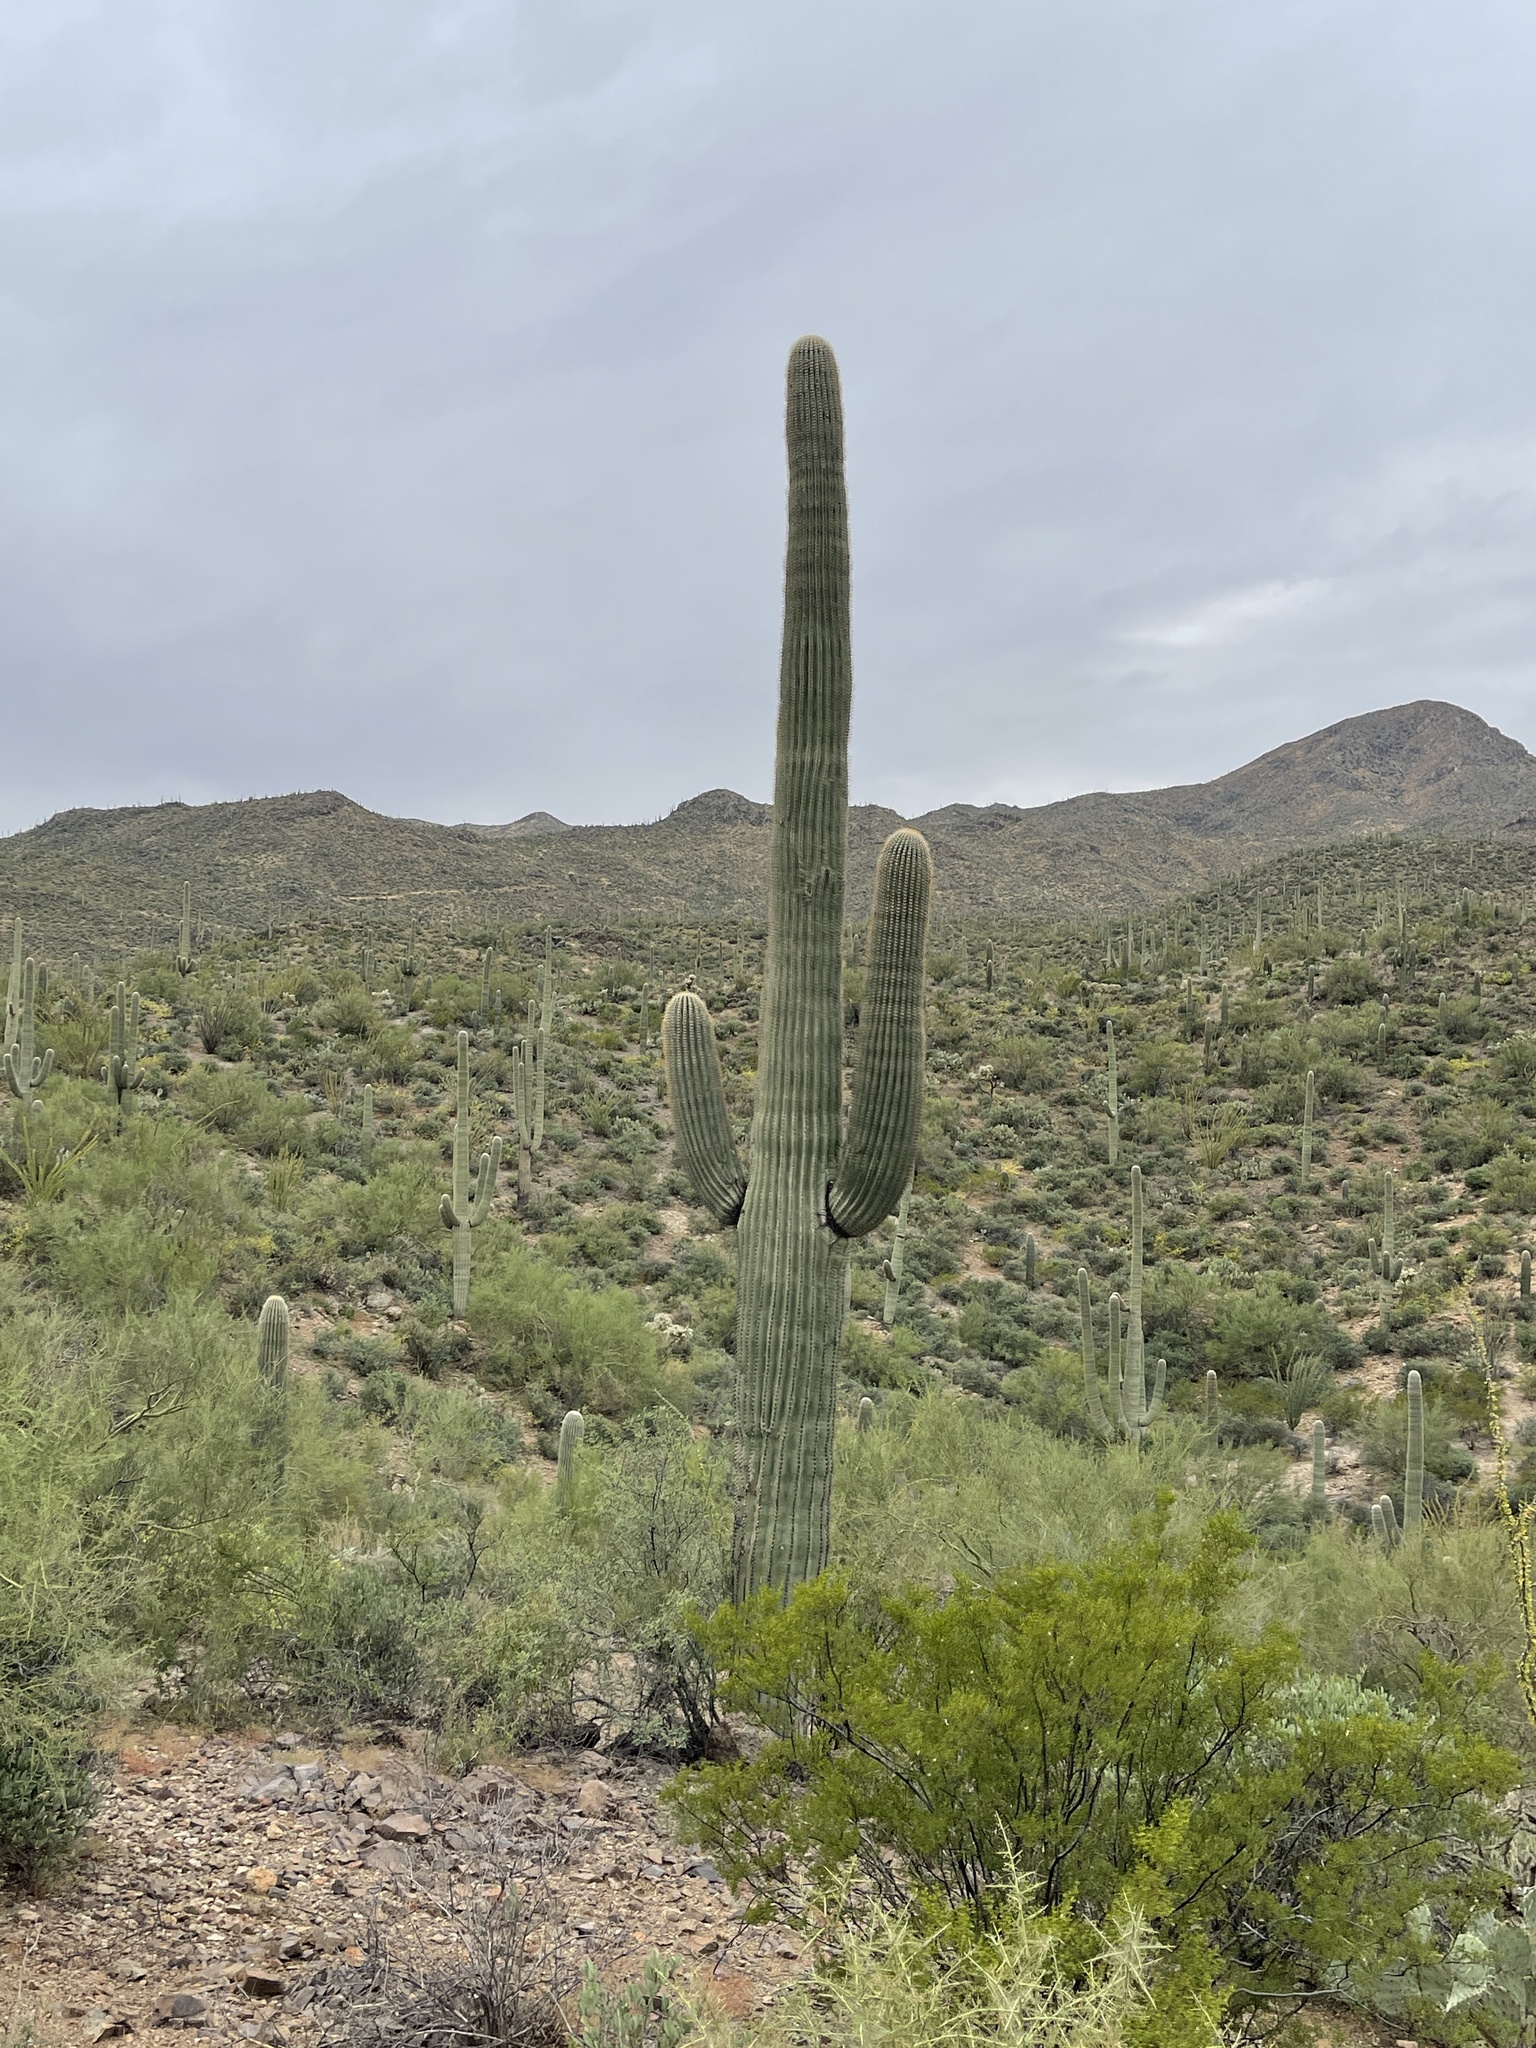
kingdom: Plantae
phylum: Tracheophyta
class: Magnoliopsida
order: Caryophyllales
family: Cactaceae
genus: Carnegiea
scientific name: Carnegiea gigantea
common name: Saguaro
